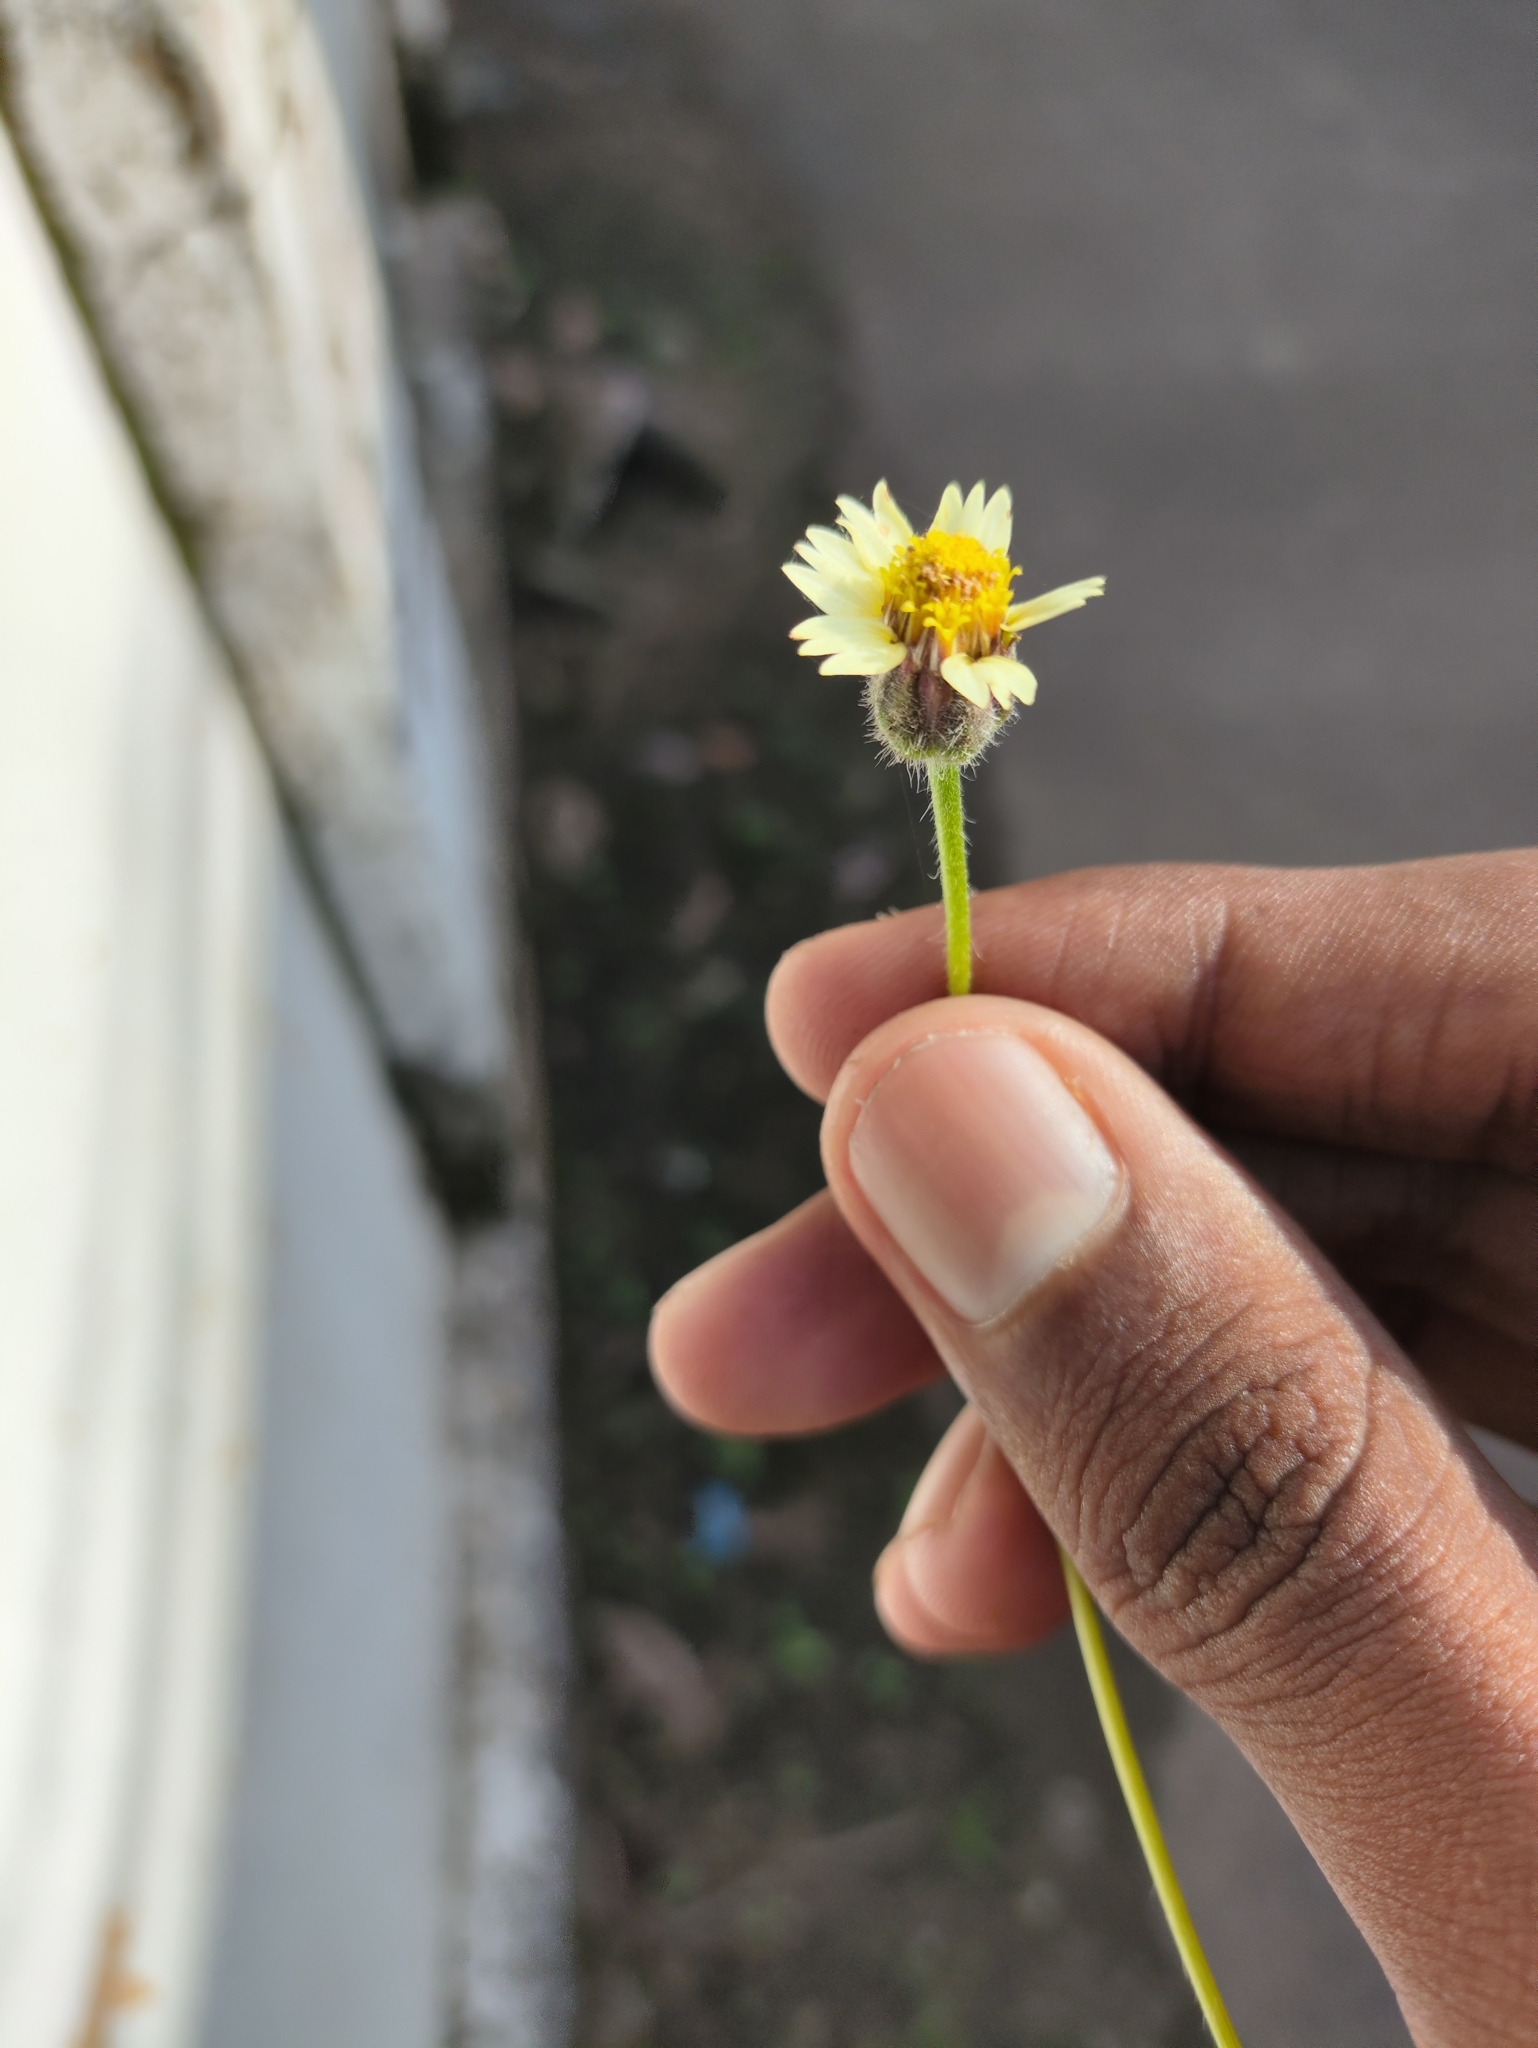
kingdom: Plantae
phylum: Tracheophyta
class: Magnoliopsida
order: Asterales
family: Asteraceae
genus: Tridax
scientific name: Tridax procumbens
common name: Coatbuttons
